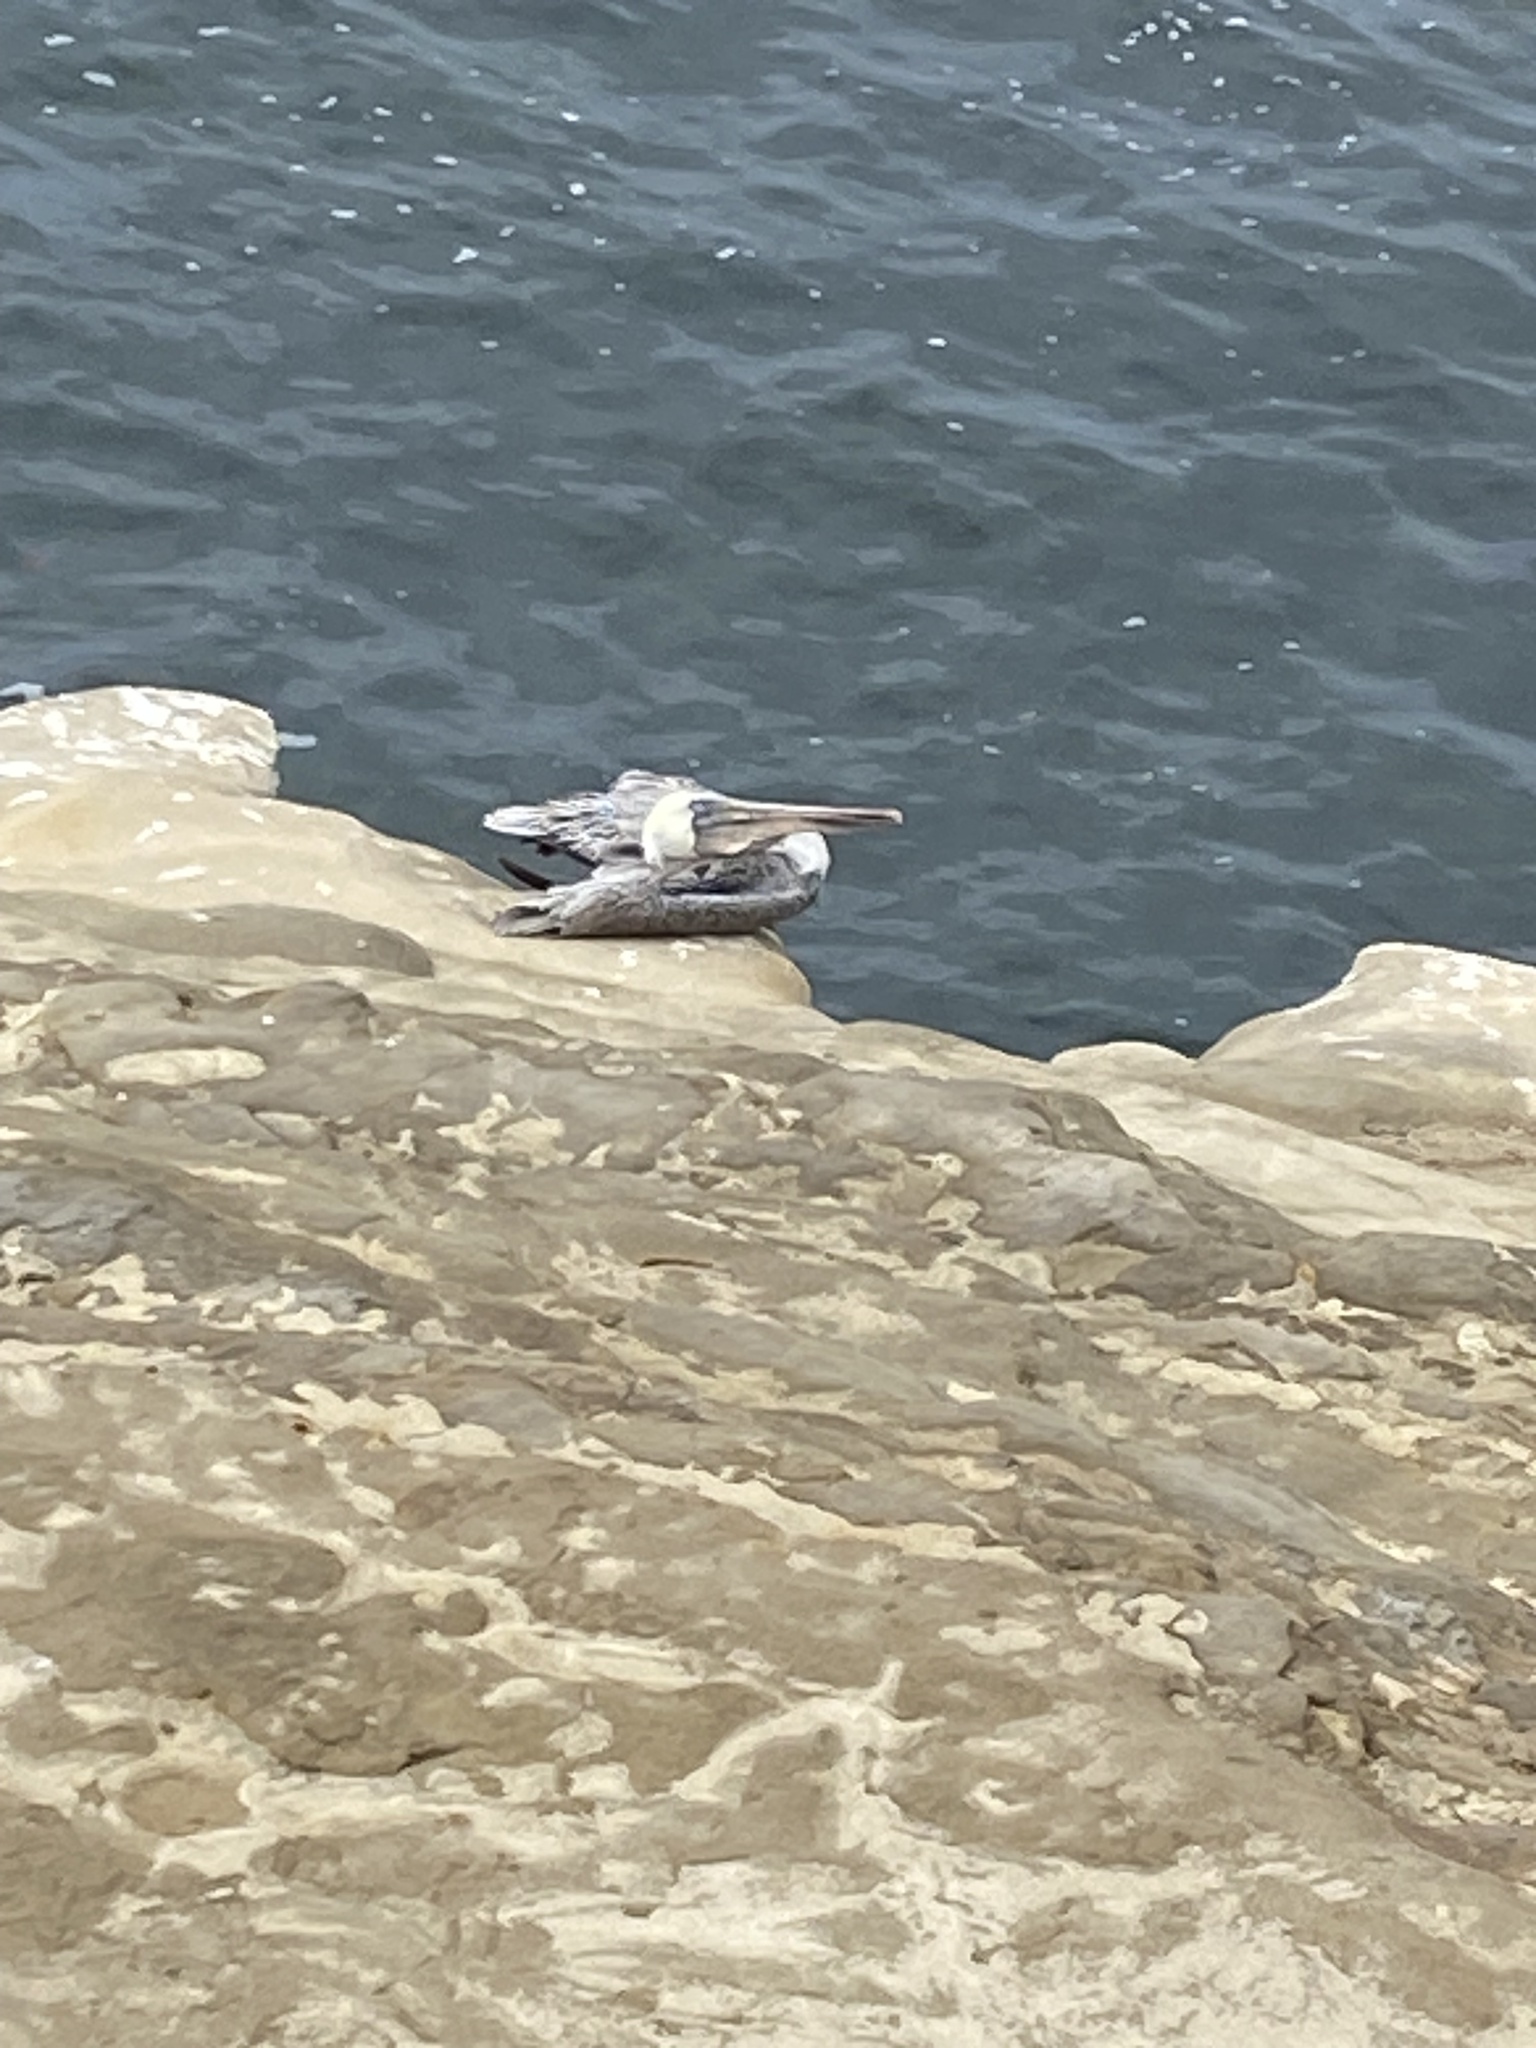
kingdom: Animalia
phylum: Chordata
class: Aves
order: Pelecaniformes
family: Pelecanidae
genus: Pelecanus
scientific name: Pelecanus occidentalis
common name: Brown pelican
